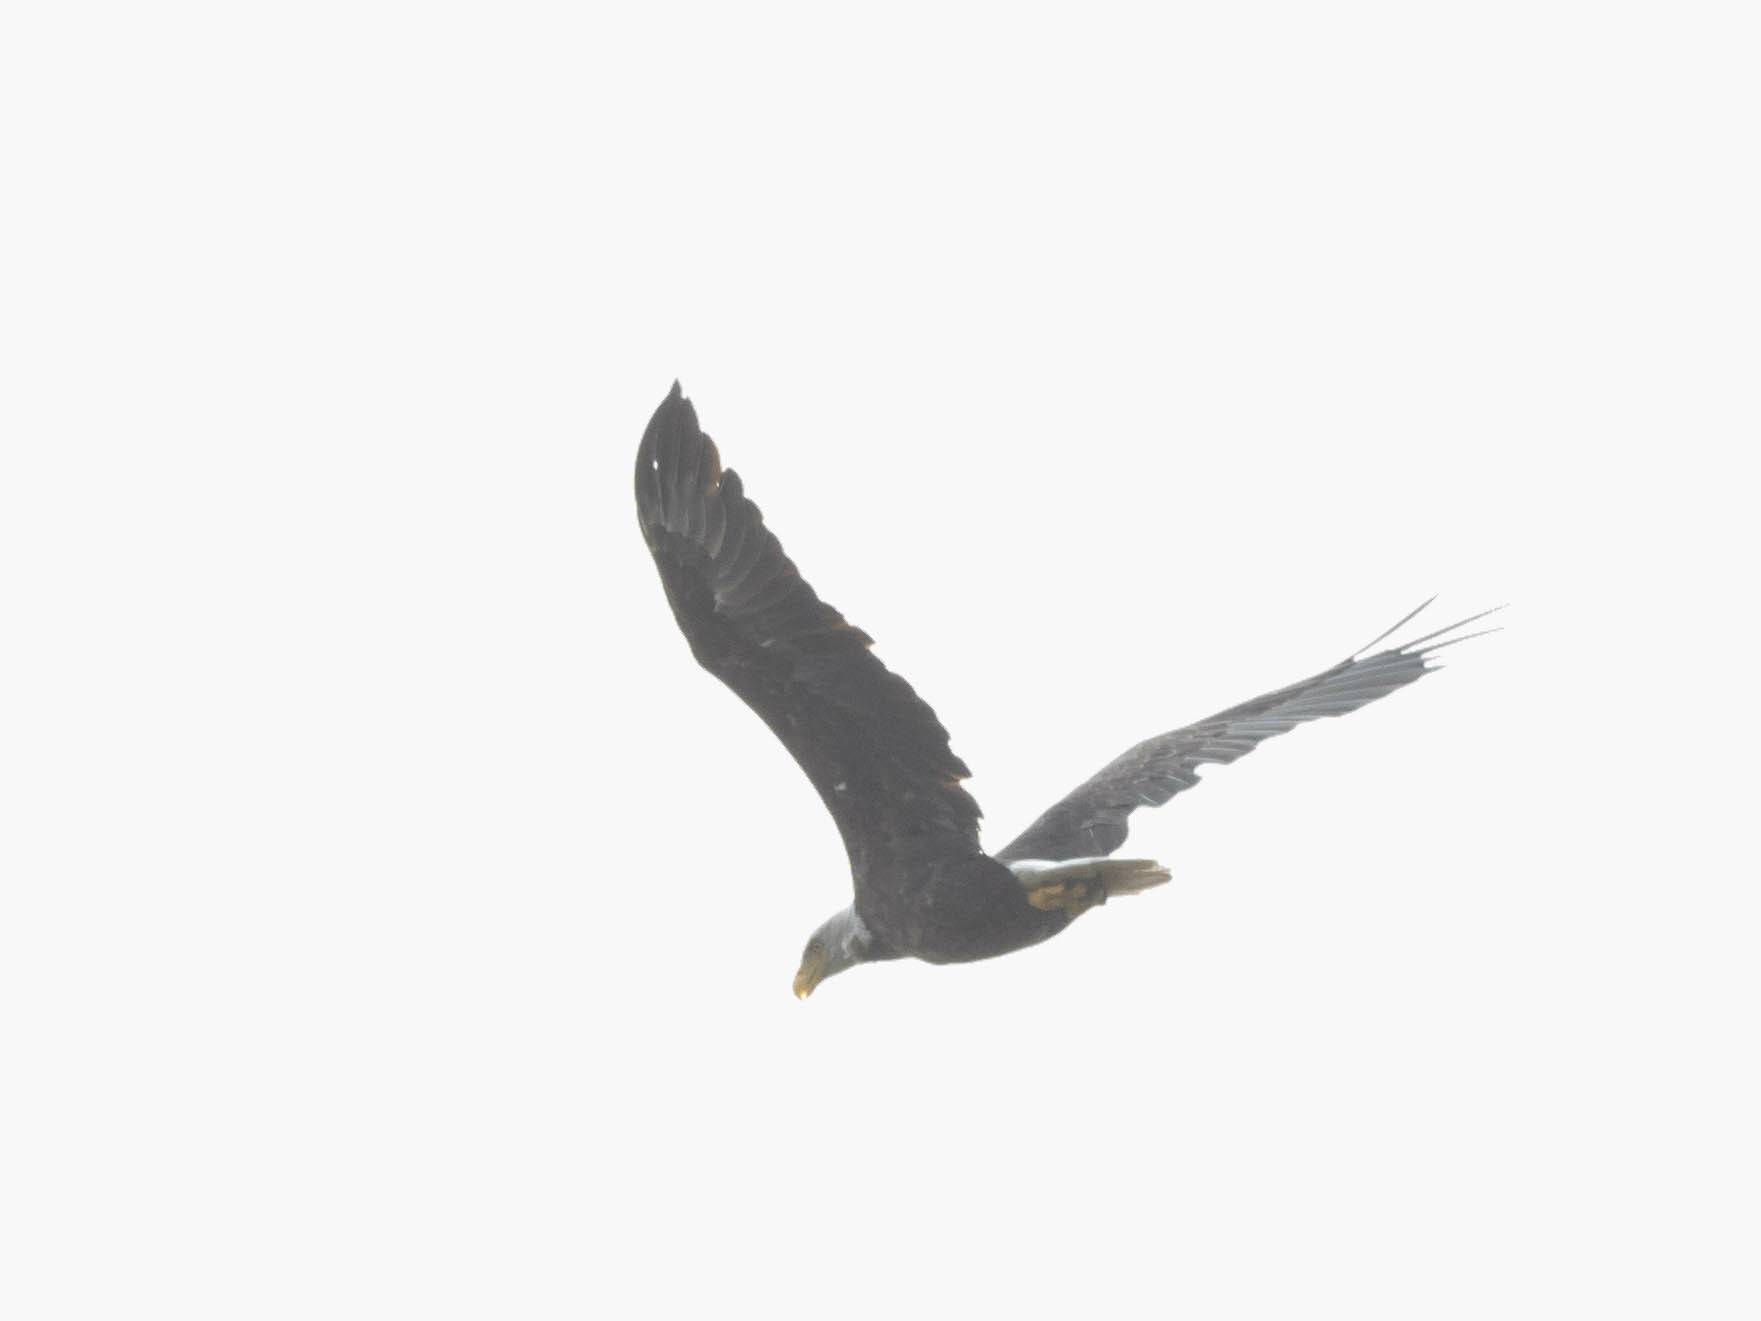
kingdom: Animalia
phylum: Chordata
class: Aves
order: Accipitriformes
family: Accipitridae
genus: Haliaeetus
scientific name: Haliaeetus leucocephalus
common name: Bald eagle
